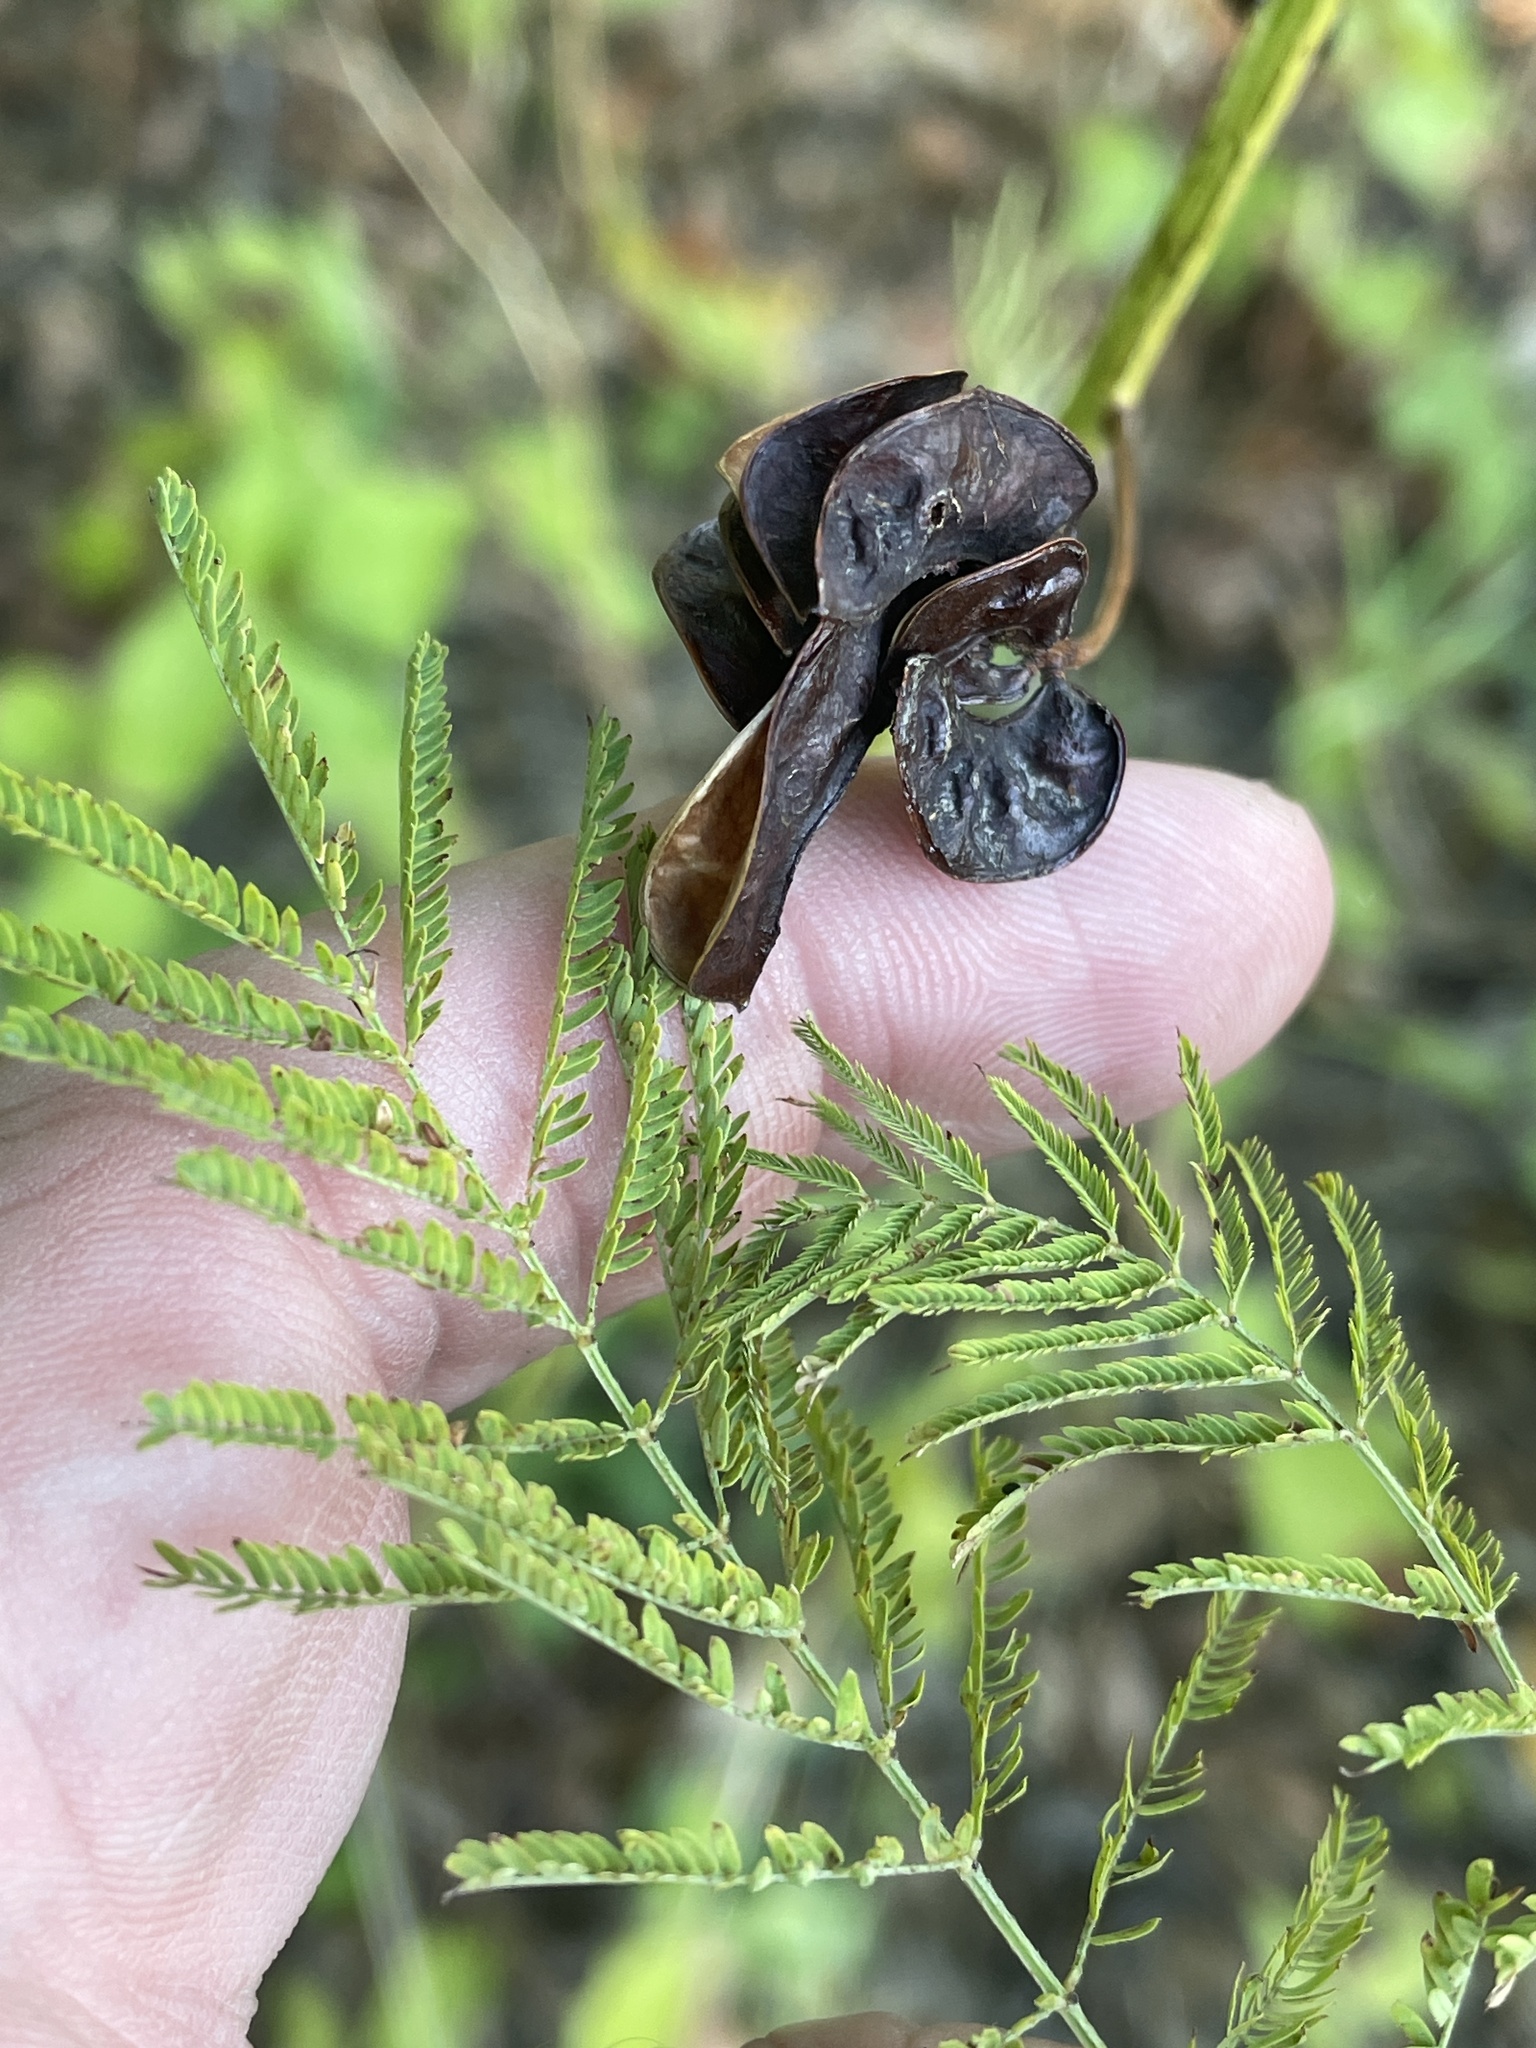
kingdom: Plantae
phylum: Tracheophyta
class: Magnoliopsida
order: Fabales
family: Fabaceae
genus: Desmanthus
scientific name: Desmanthus illinoensis
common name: Illinois bundle-flower
